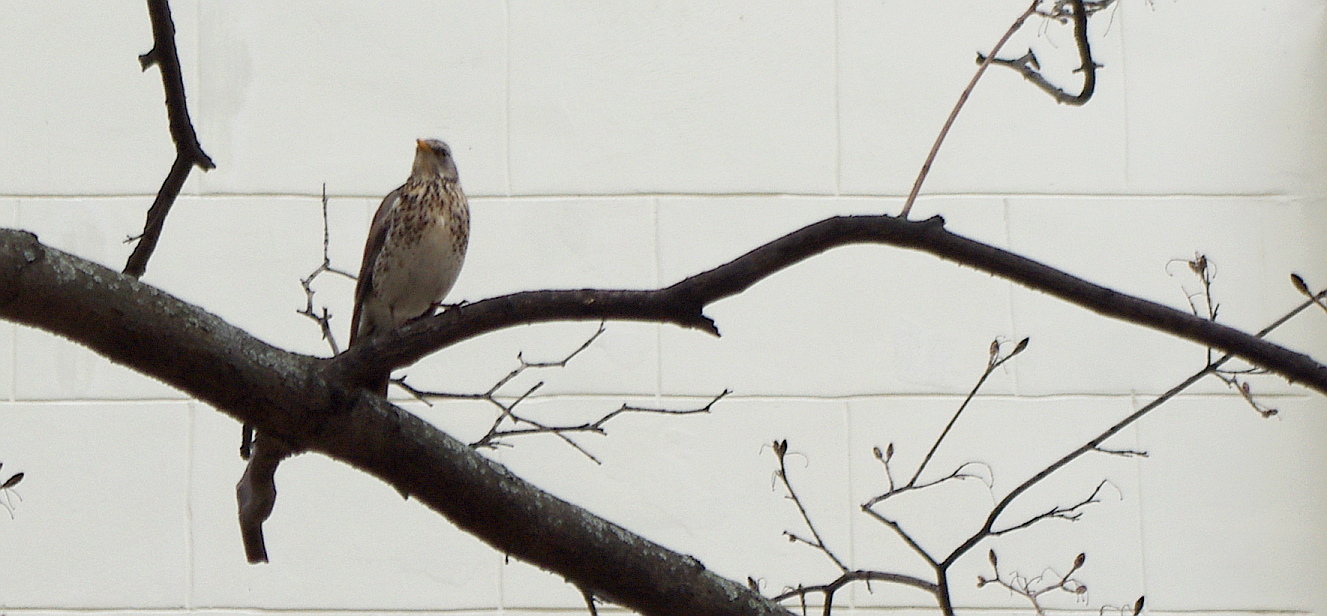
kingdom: Animalia
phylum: Chordata
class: Aves
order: Passeriformes
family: Turdidae
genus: Turdus
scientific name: Turdus pilaris
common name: Fieldfare
